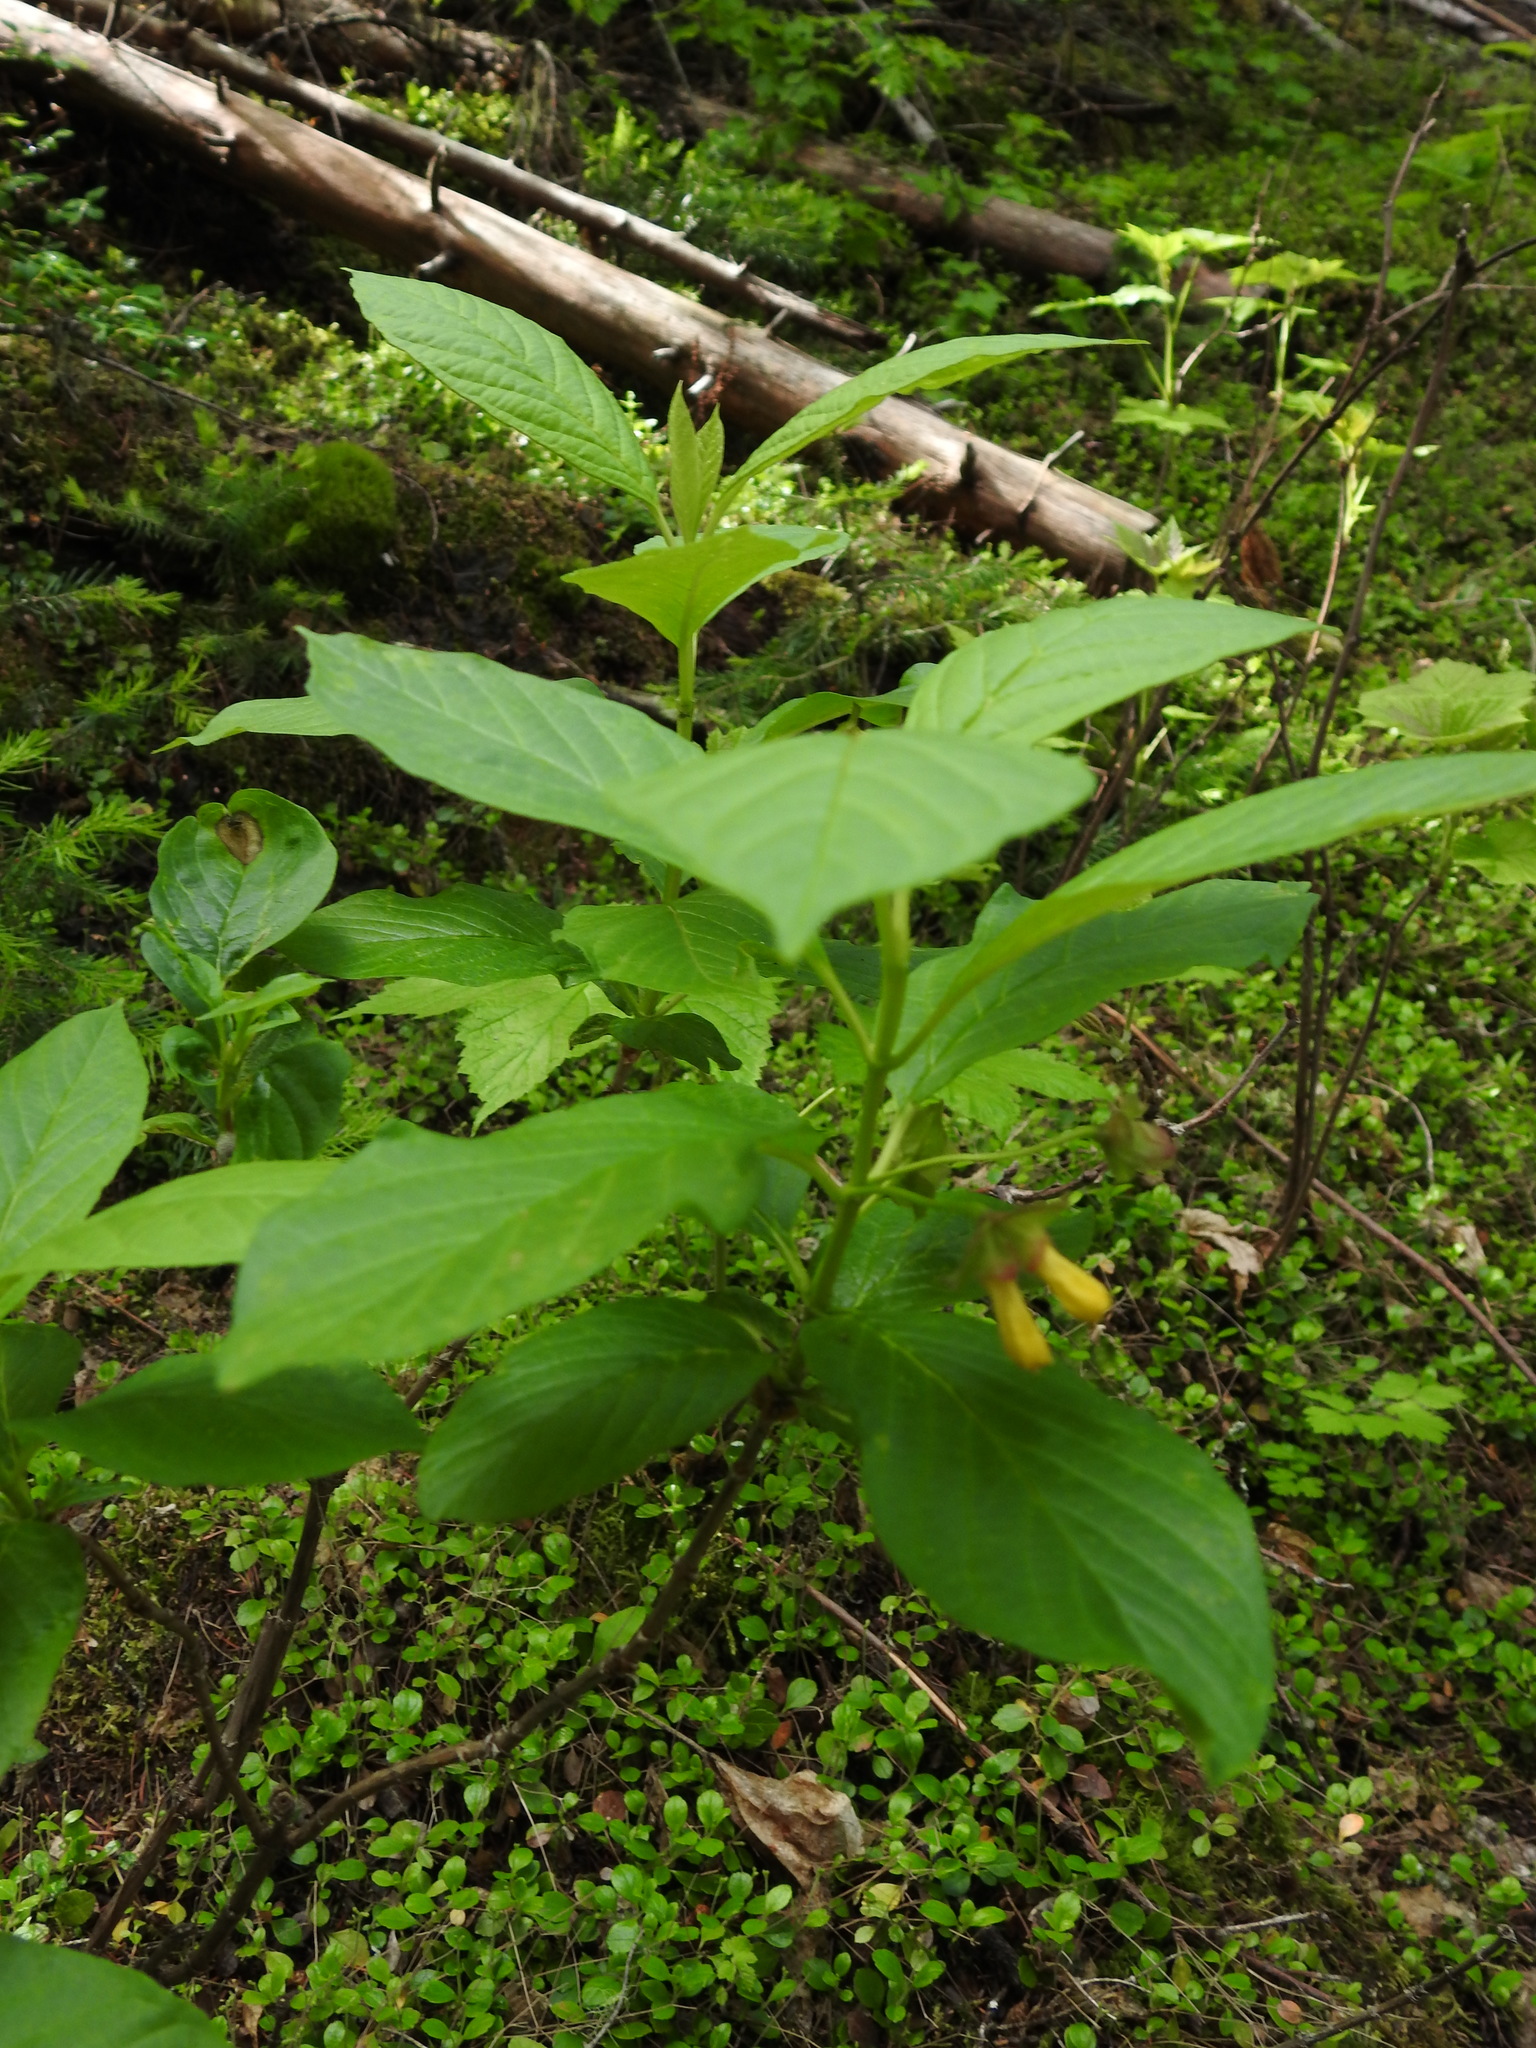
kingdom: Plantae
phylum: Tracheophyta
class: Magnoliopsida
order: Dipsacales
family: Caprifoliaceae
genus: Lonicera
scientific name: Lonicera involucrata
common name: Californian honeysuckle
